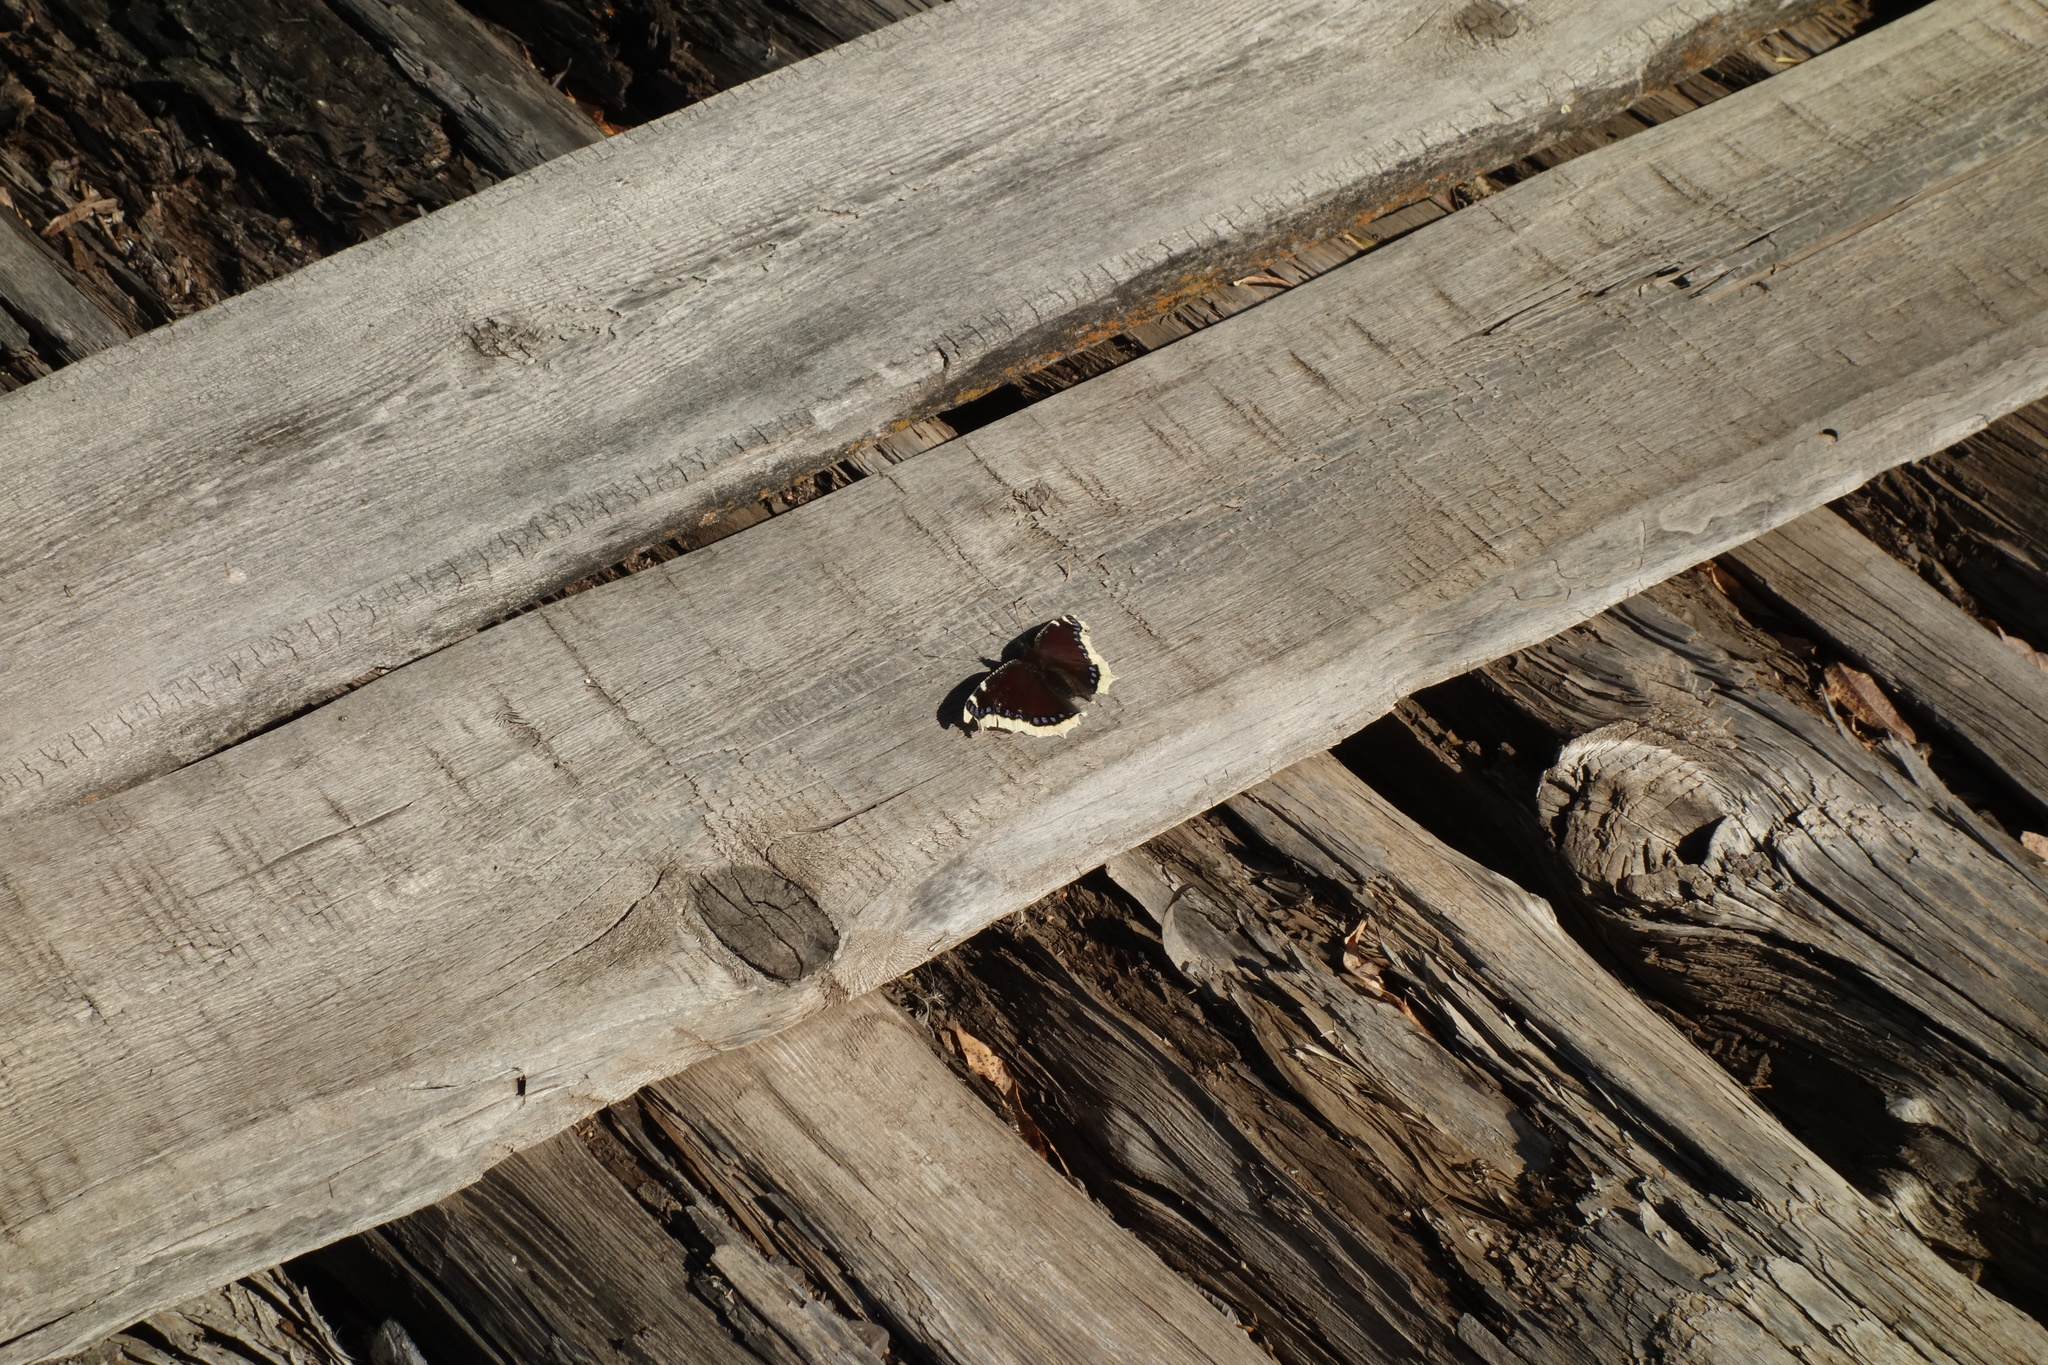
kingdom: Animalia
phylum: Arthropoda
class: Insecta
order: Lepidoptera
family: Nymphalidae
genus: Nymphalis
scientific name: Nymphalis antiopa
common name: Camberwell beauty
